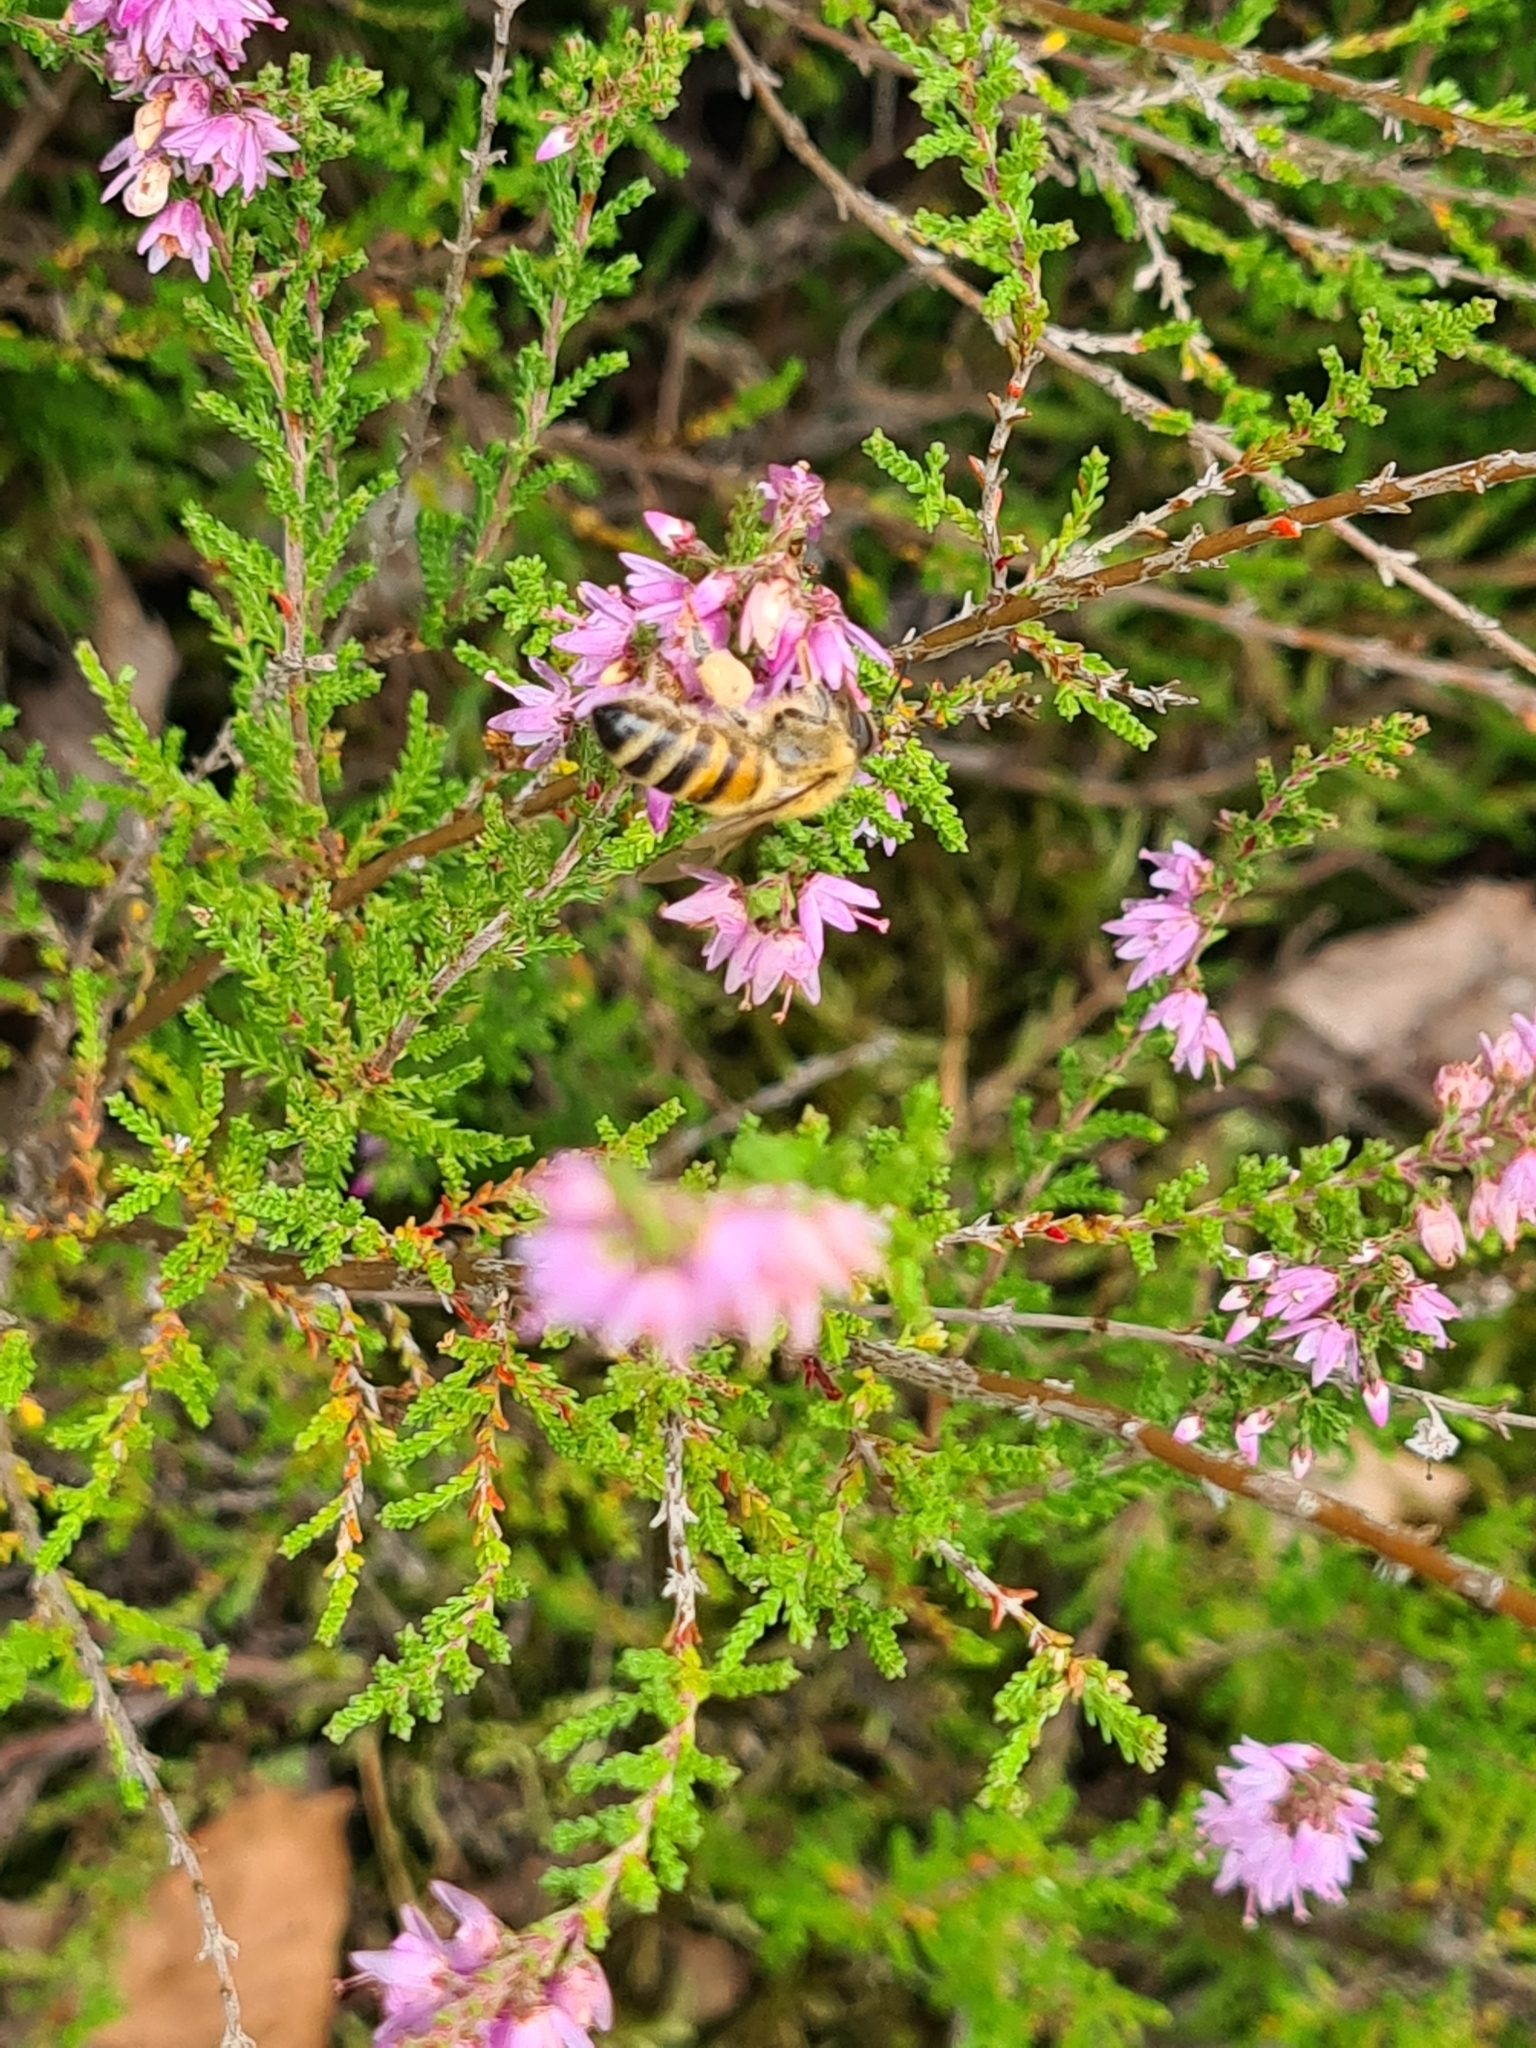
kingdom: Animalia
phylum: Arthropoda
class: Insecta
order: Hymenoptera
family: Apidae
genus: Apis
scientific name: Apis mellifera
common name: Honey bee
